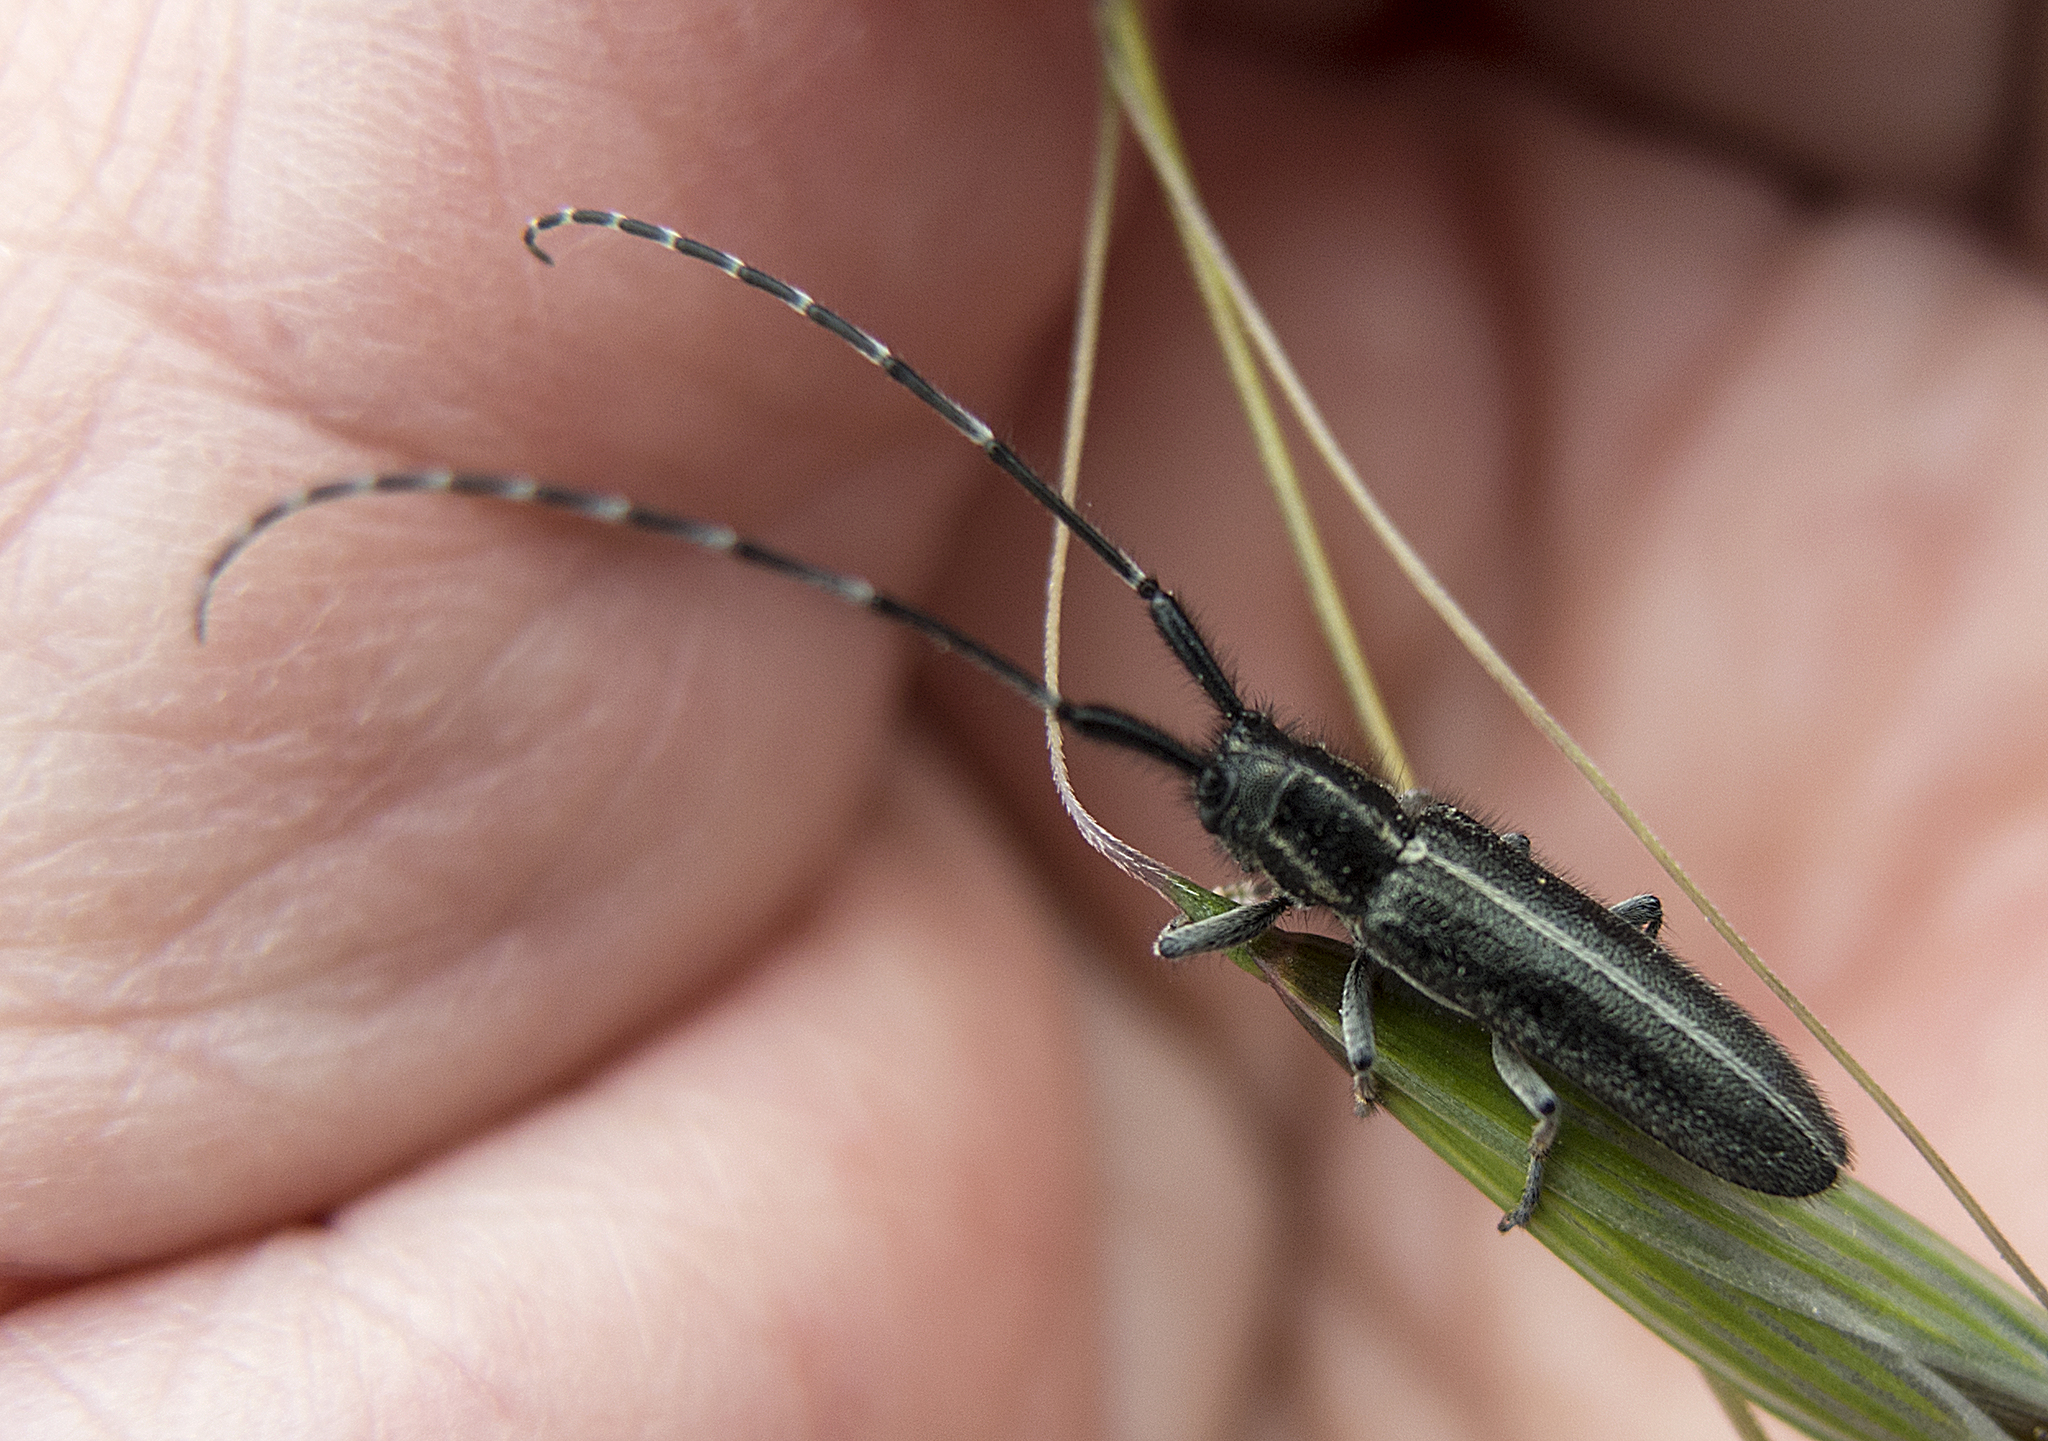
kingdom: Animalia
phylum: Arthropoda
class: Insecta
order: Coleoptera
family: Cerambycidae
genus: Agapanthia
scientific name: Agapanthia cardui
